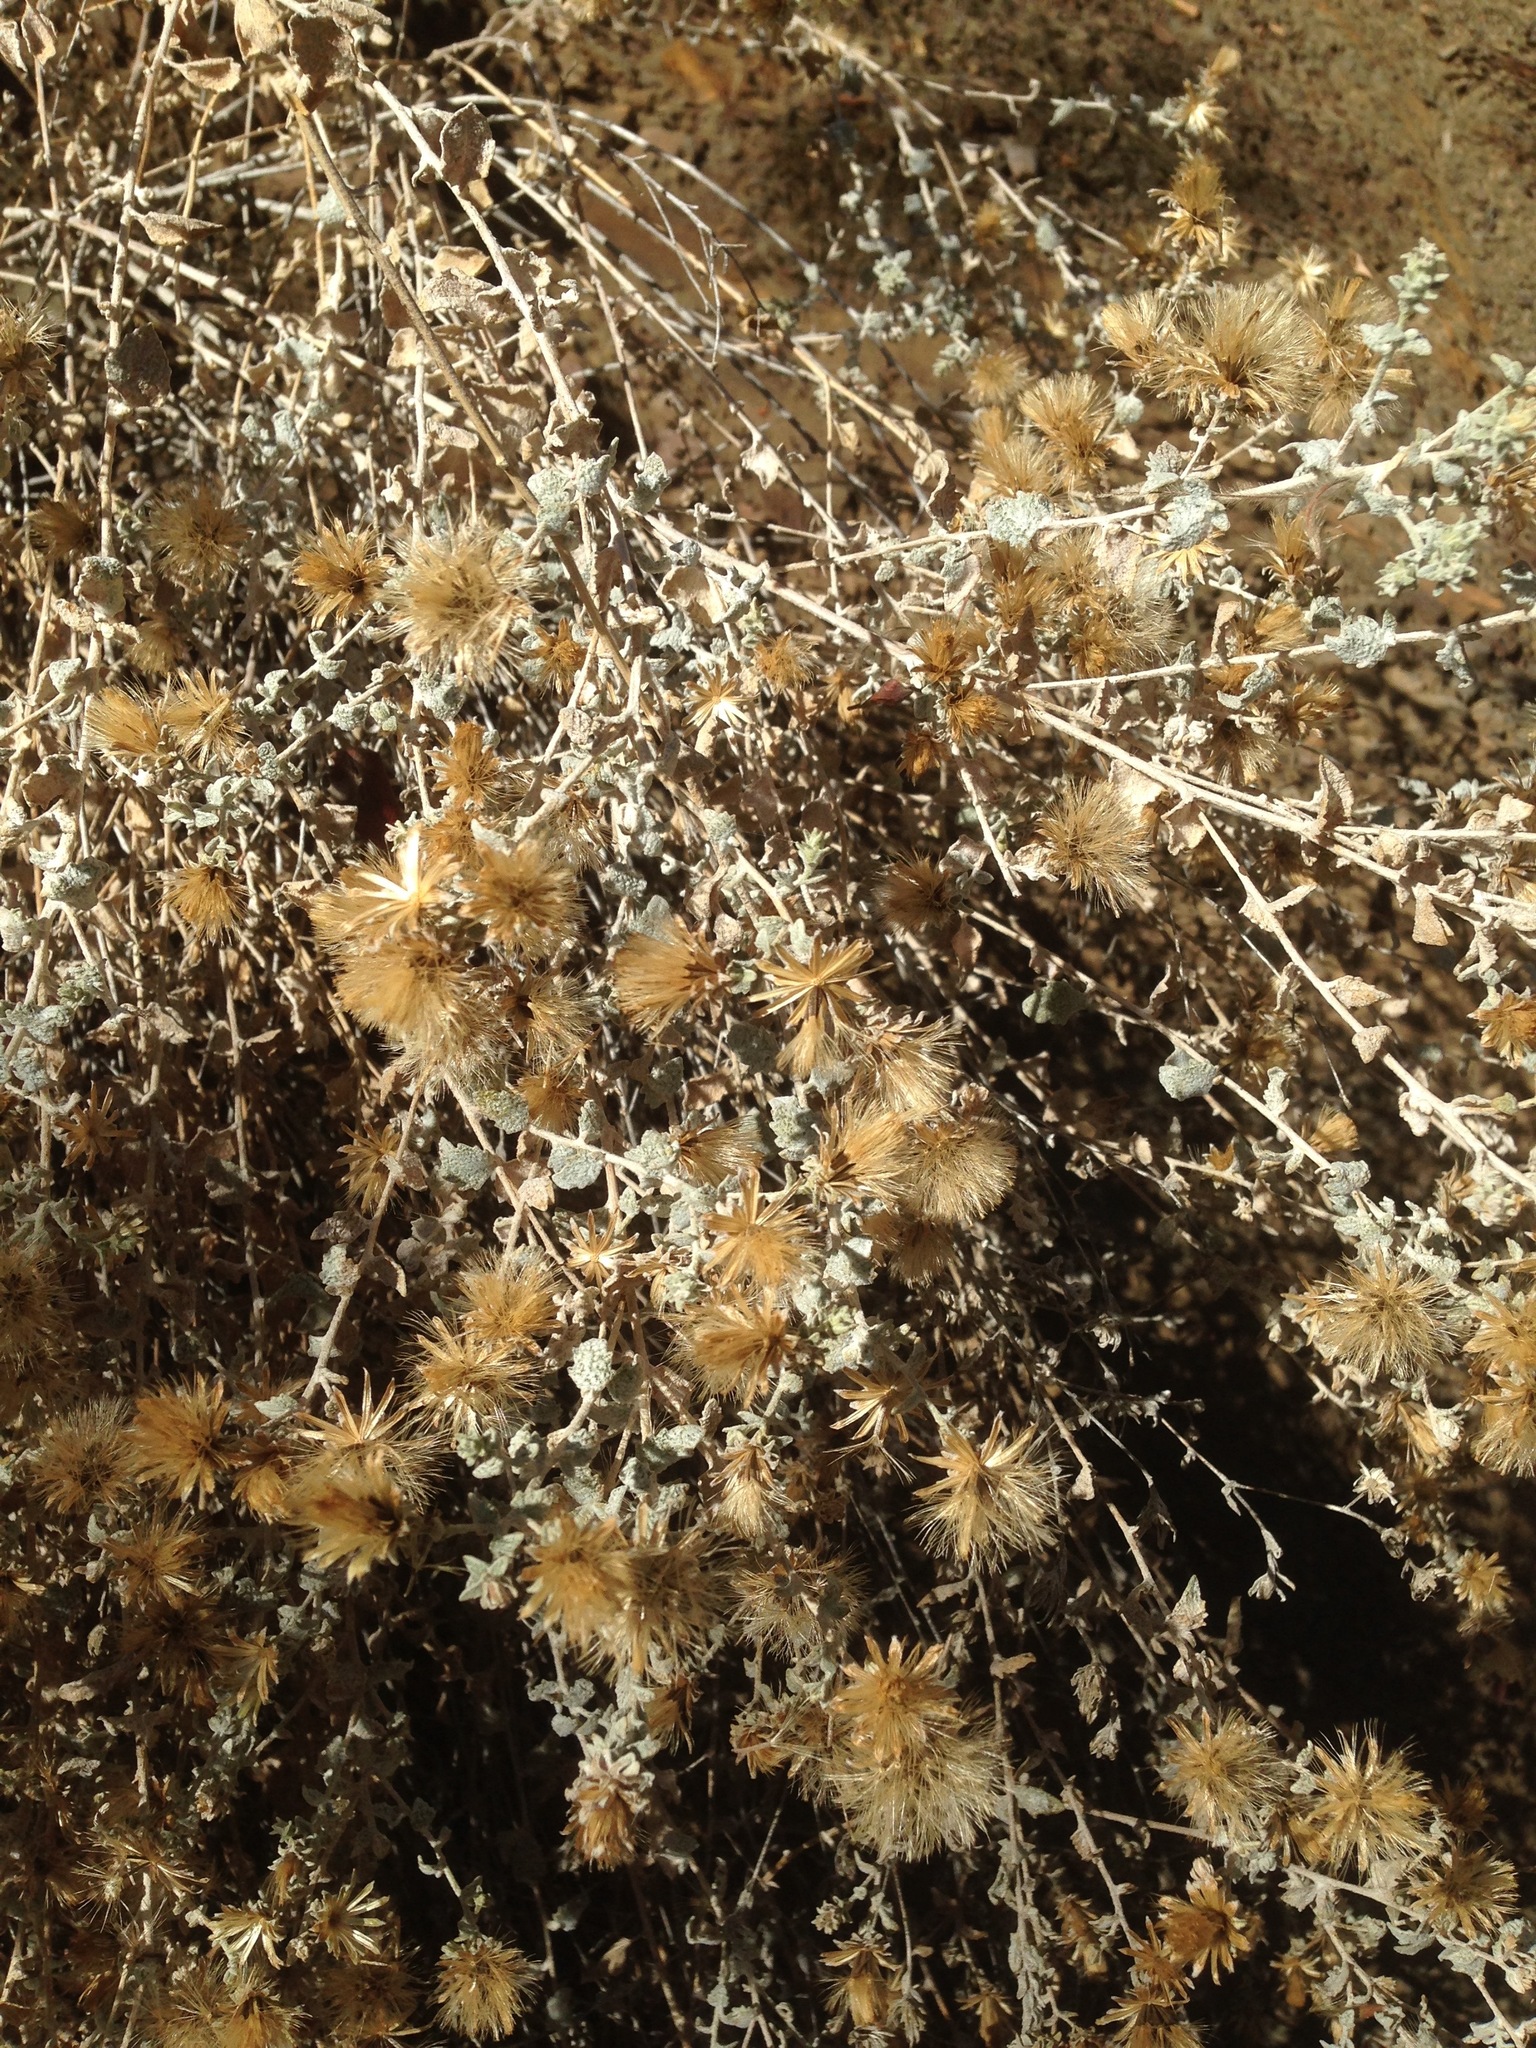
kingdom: Plantae
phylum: Tracheophyta
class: Magnoliopsida
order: Asterales
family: Asteraceae
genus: Brickellia
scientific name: Brickellia nevinii
